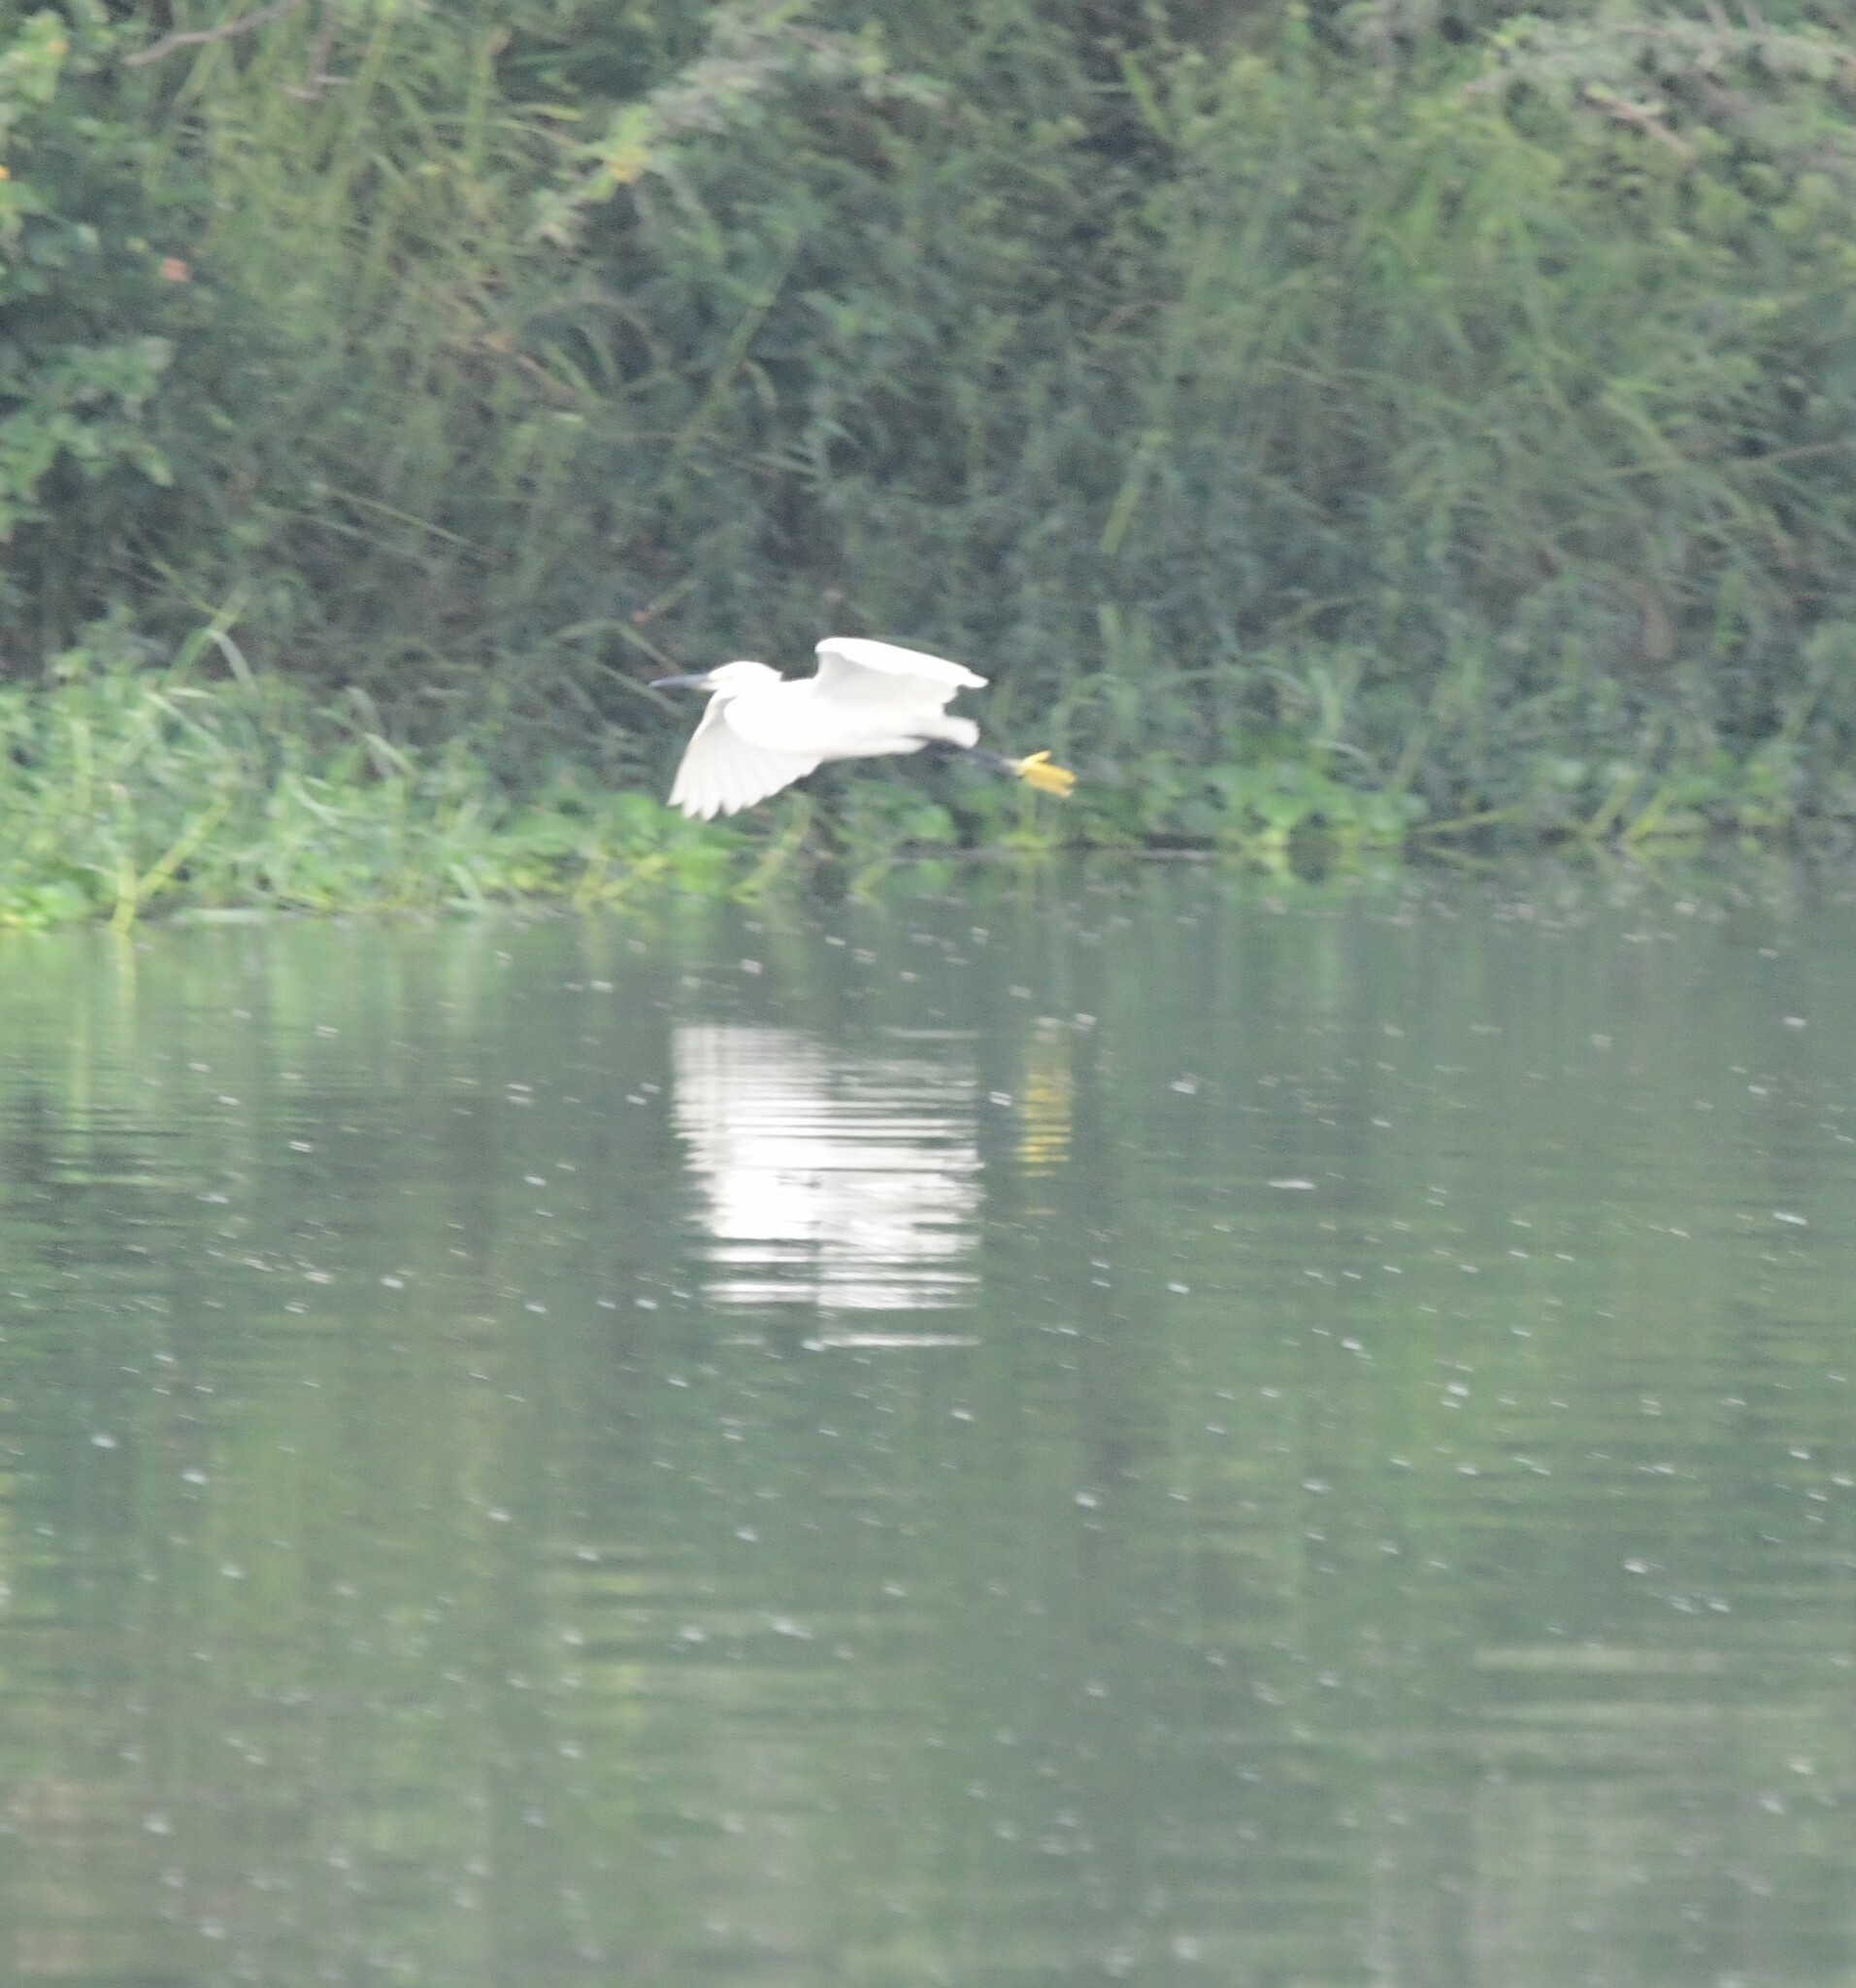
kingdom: Animalia
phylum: Chordata
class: Aves
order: Pelecaniformes
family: Ardeidae
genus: Egretta
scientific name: Egretta garzetta
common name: Little egret
